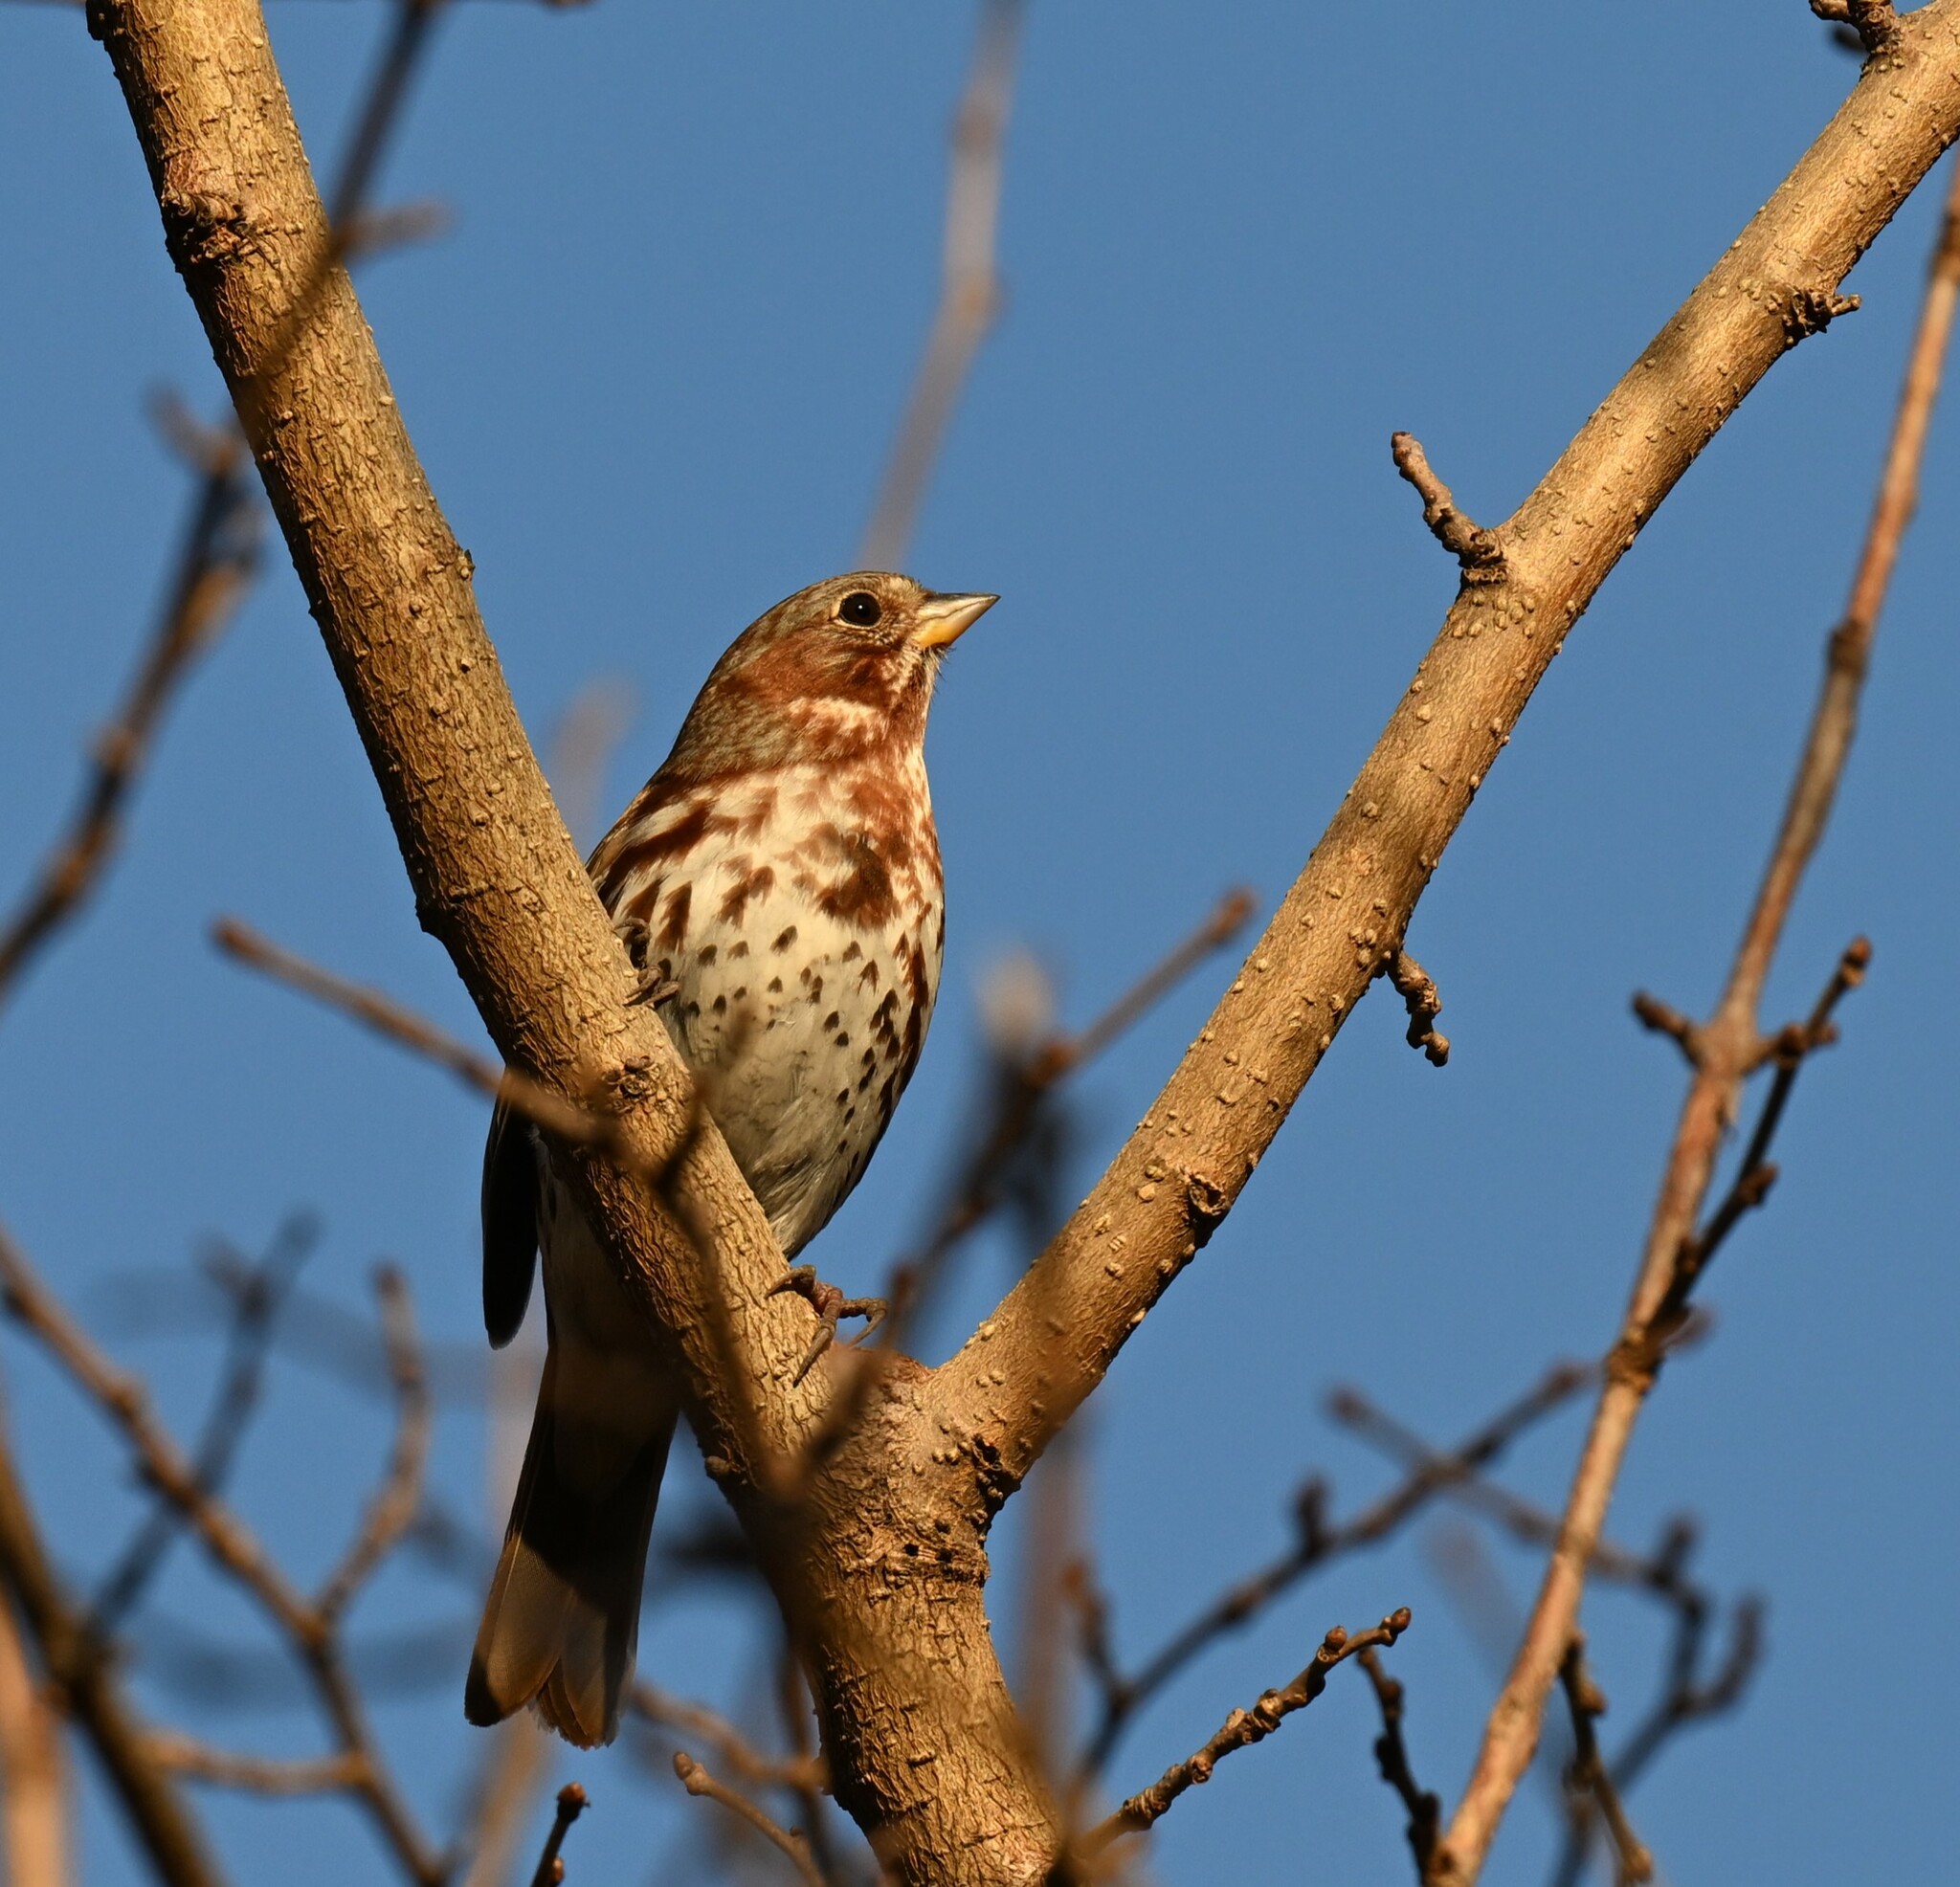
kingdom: Animalia
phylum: Chordata
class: Aves
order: Passeriformes
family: Passerellidae
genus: Passerella
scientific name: Passerella iliaca
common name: Fox sparrow
